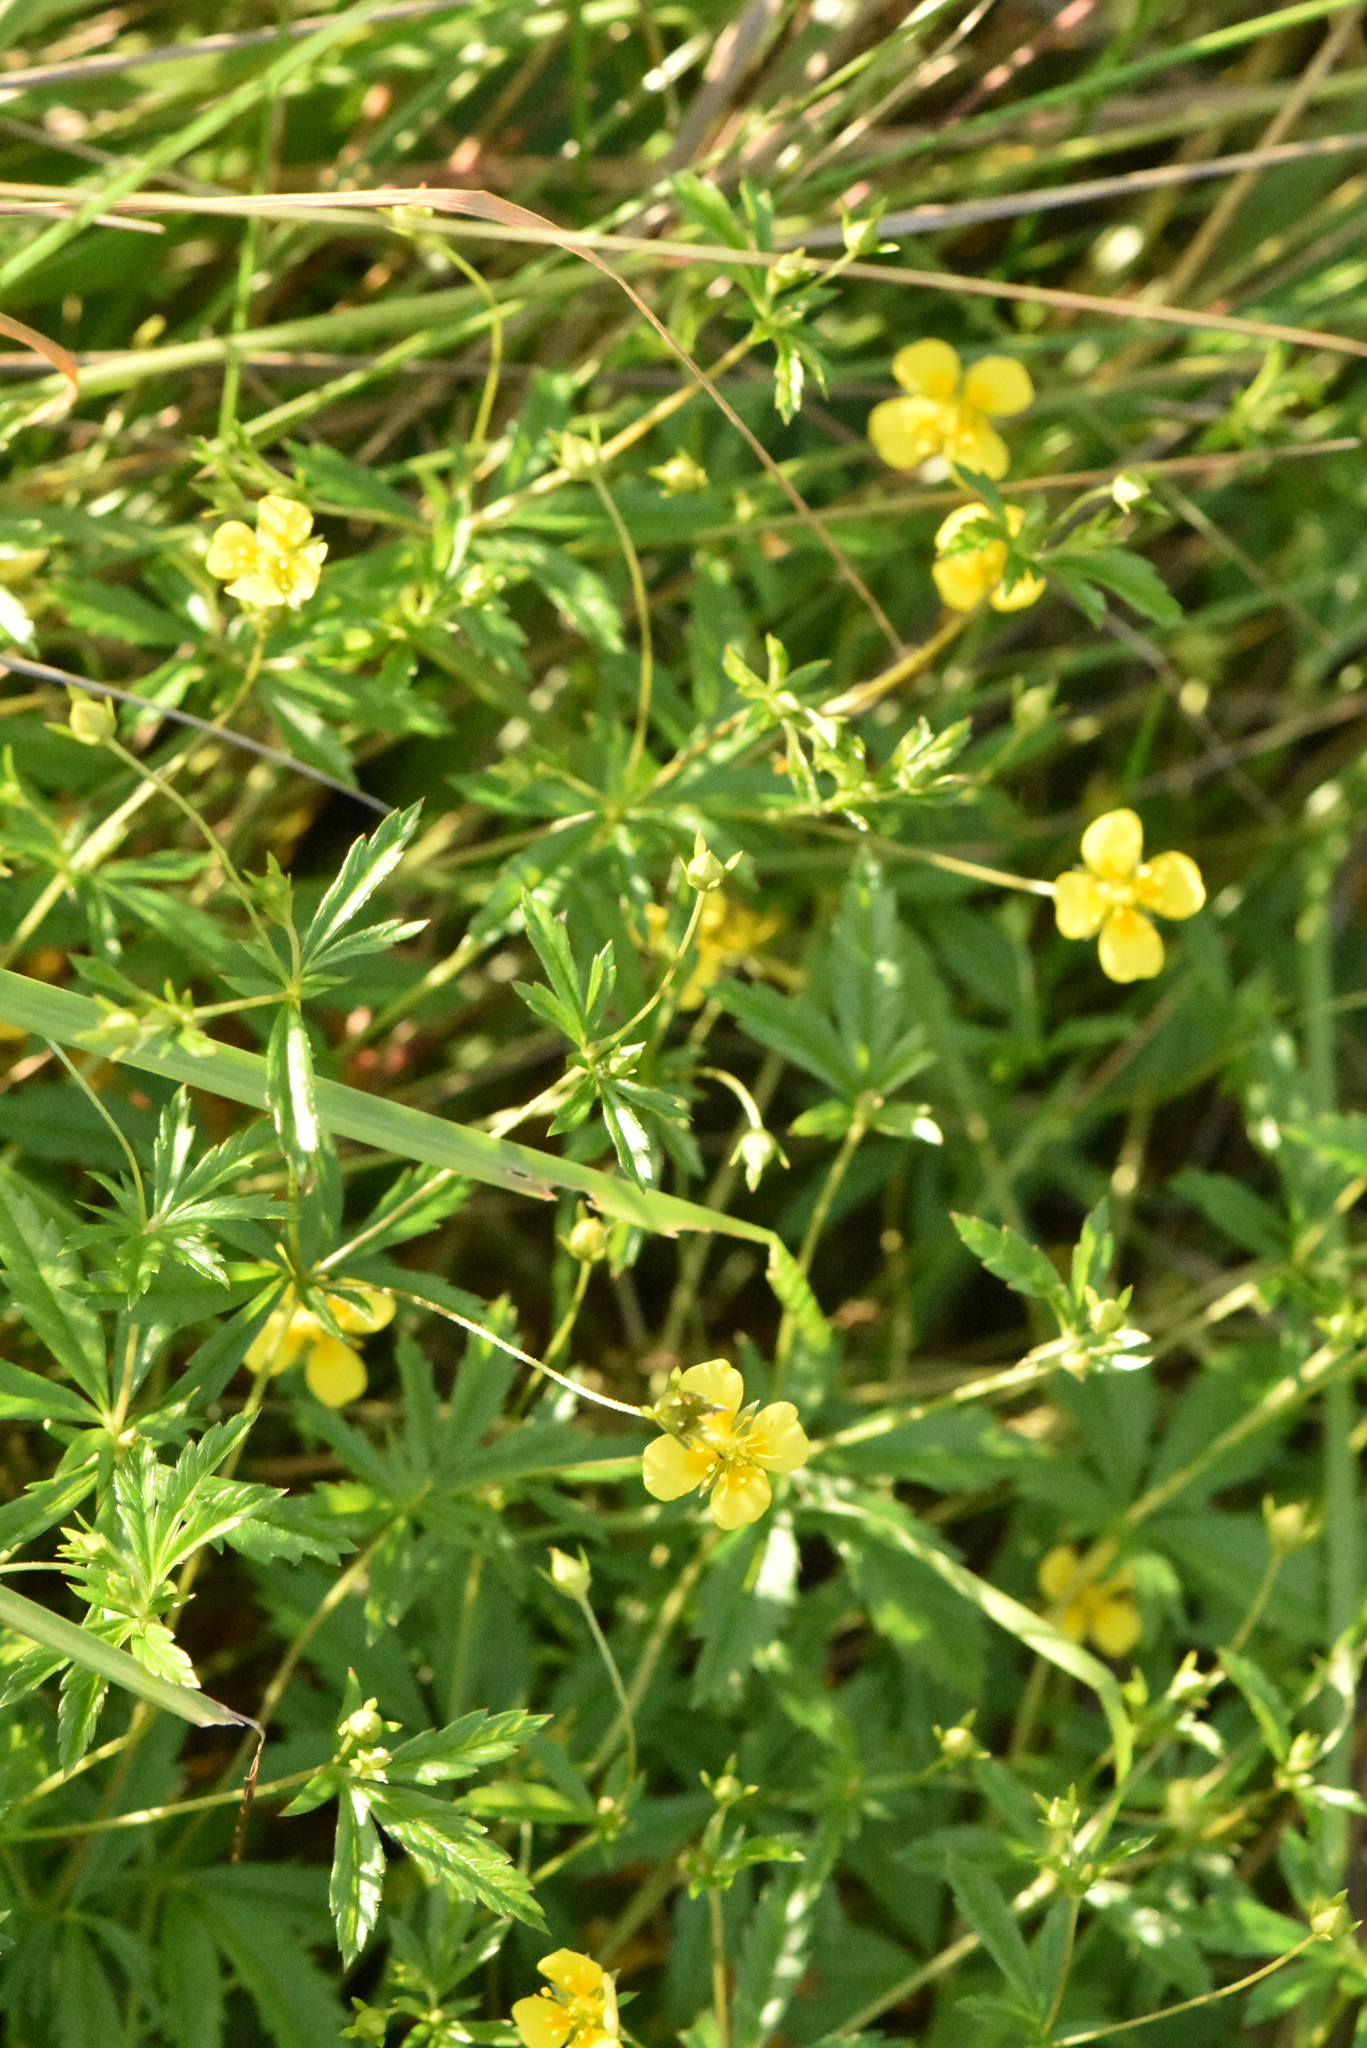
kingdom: Plantae
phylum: Tracheophyta
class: Magnoliopsida
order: Rosales
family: Rosaceae
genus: Potentilla
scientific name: Potentilla erecta
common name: Tormentil
